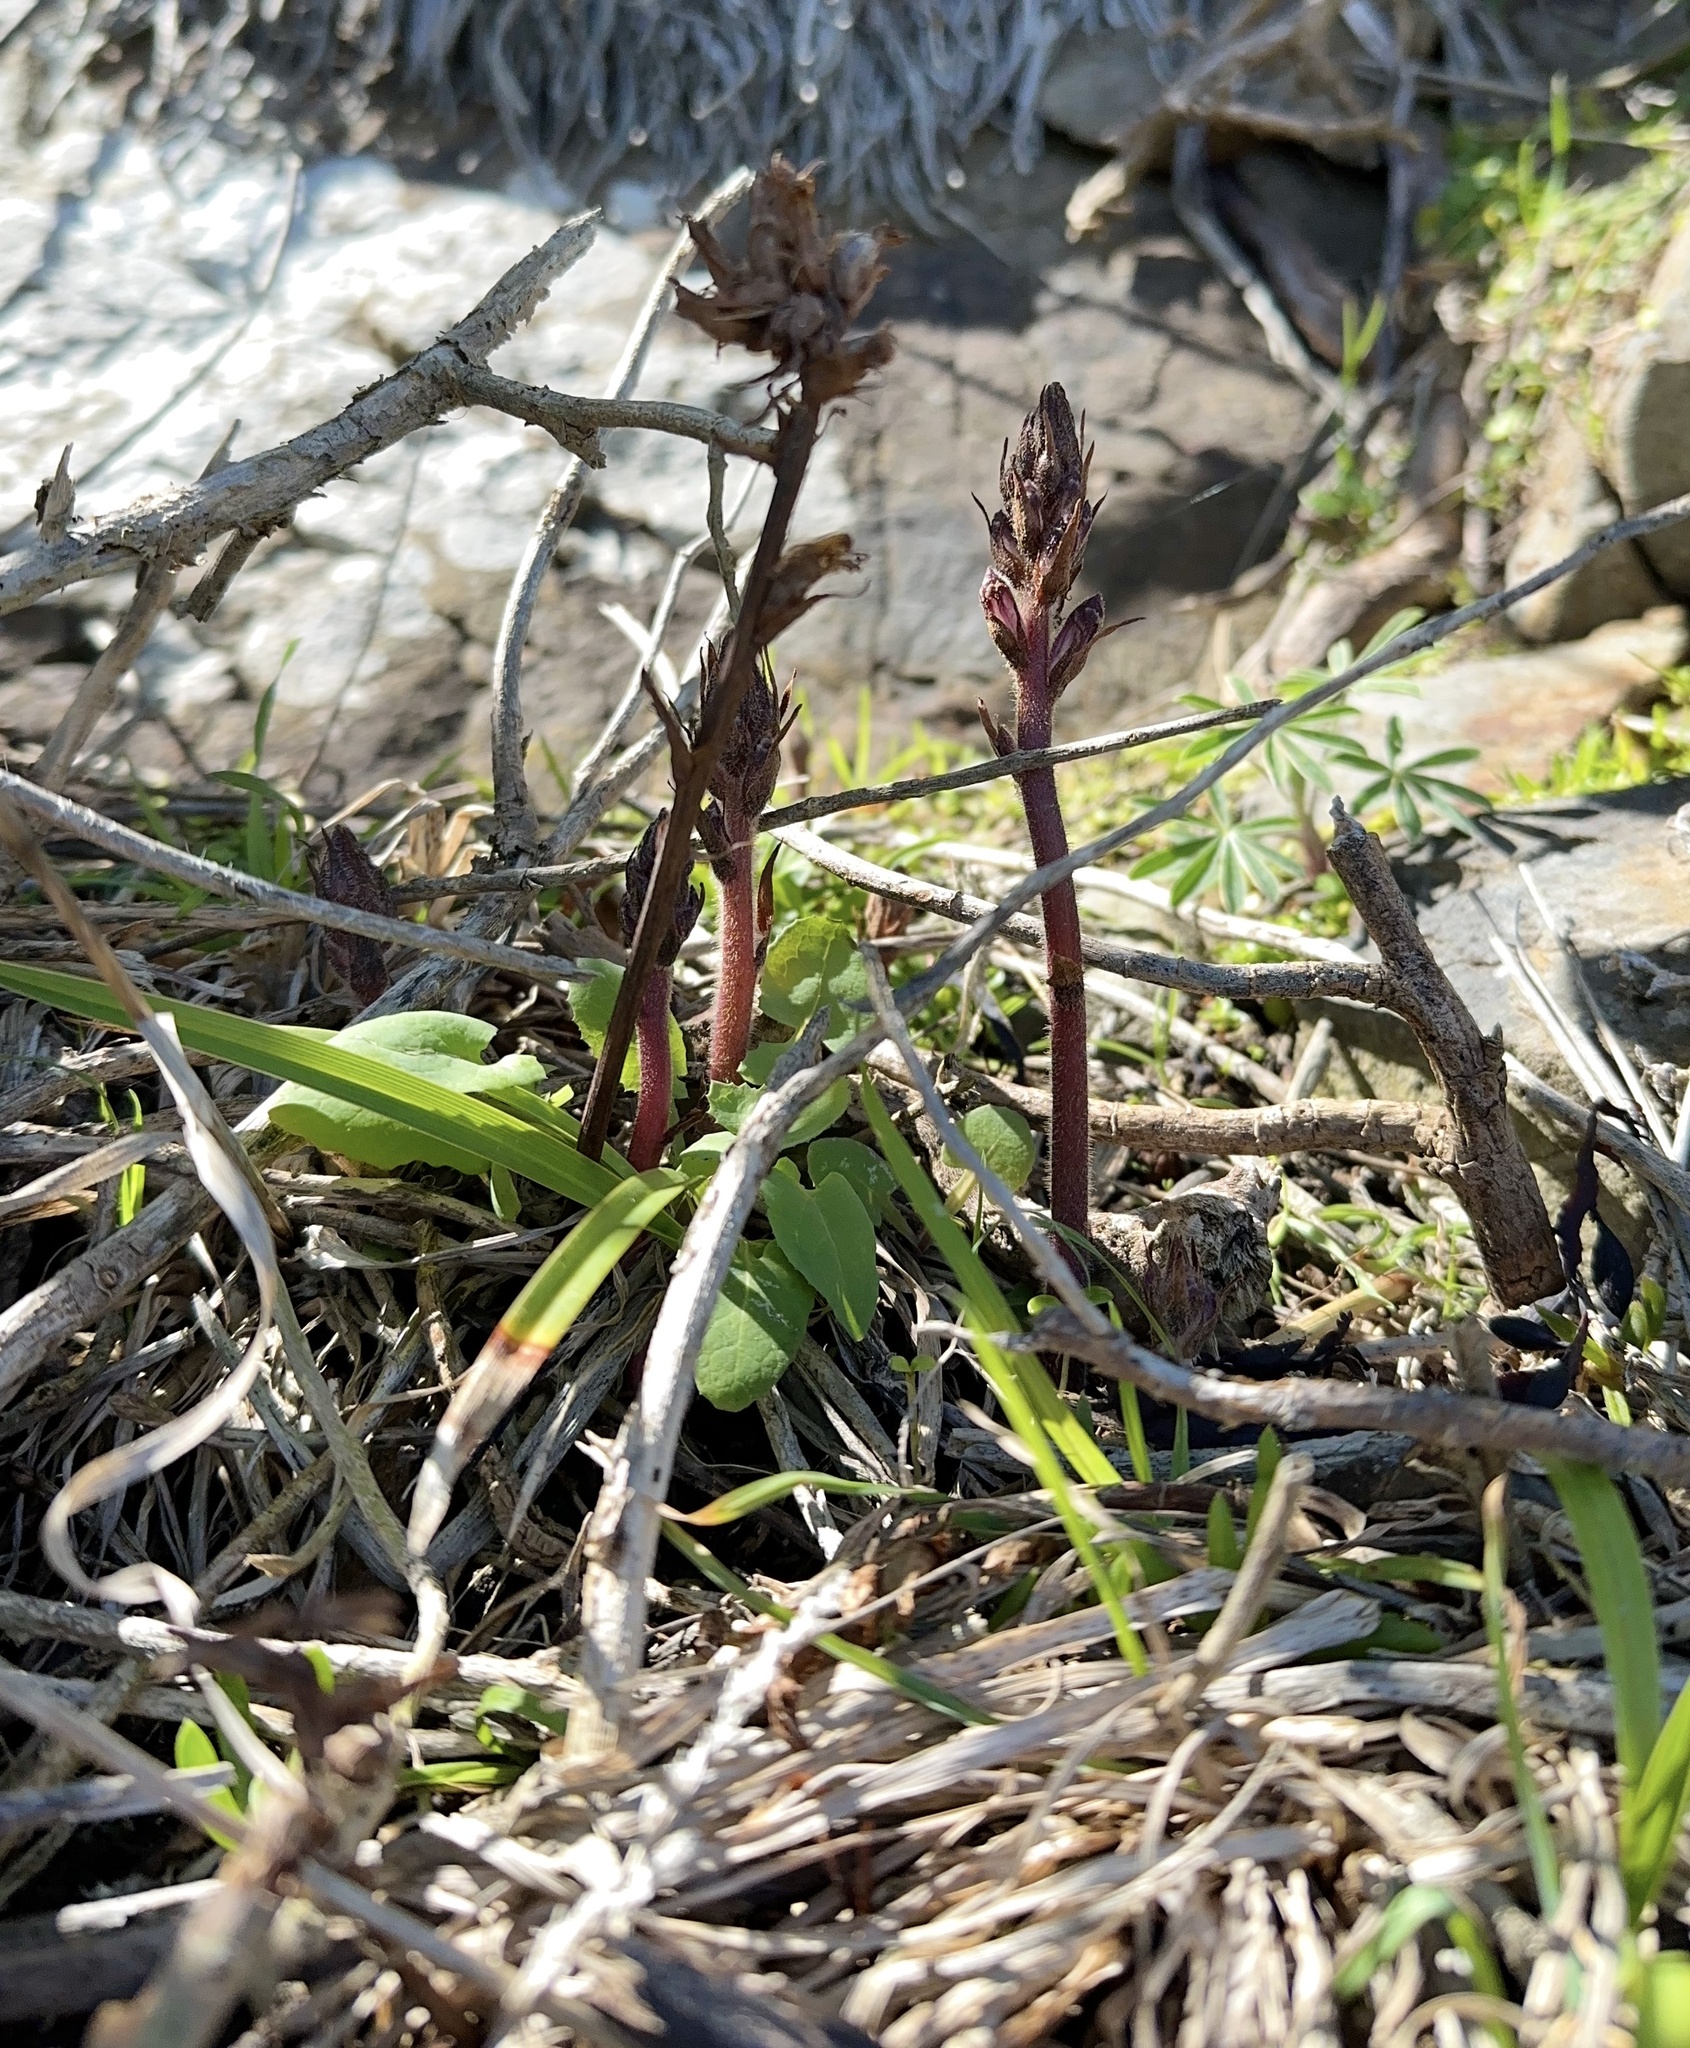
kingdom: Plantae
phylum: Tracheophyta
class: Magnoliopsida
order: Lamiales
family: Orobanchaceae
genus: Orobanche
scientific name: Orobanche minor
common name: Common broomrape
